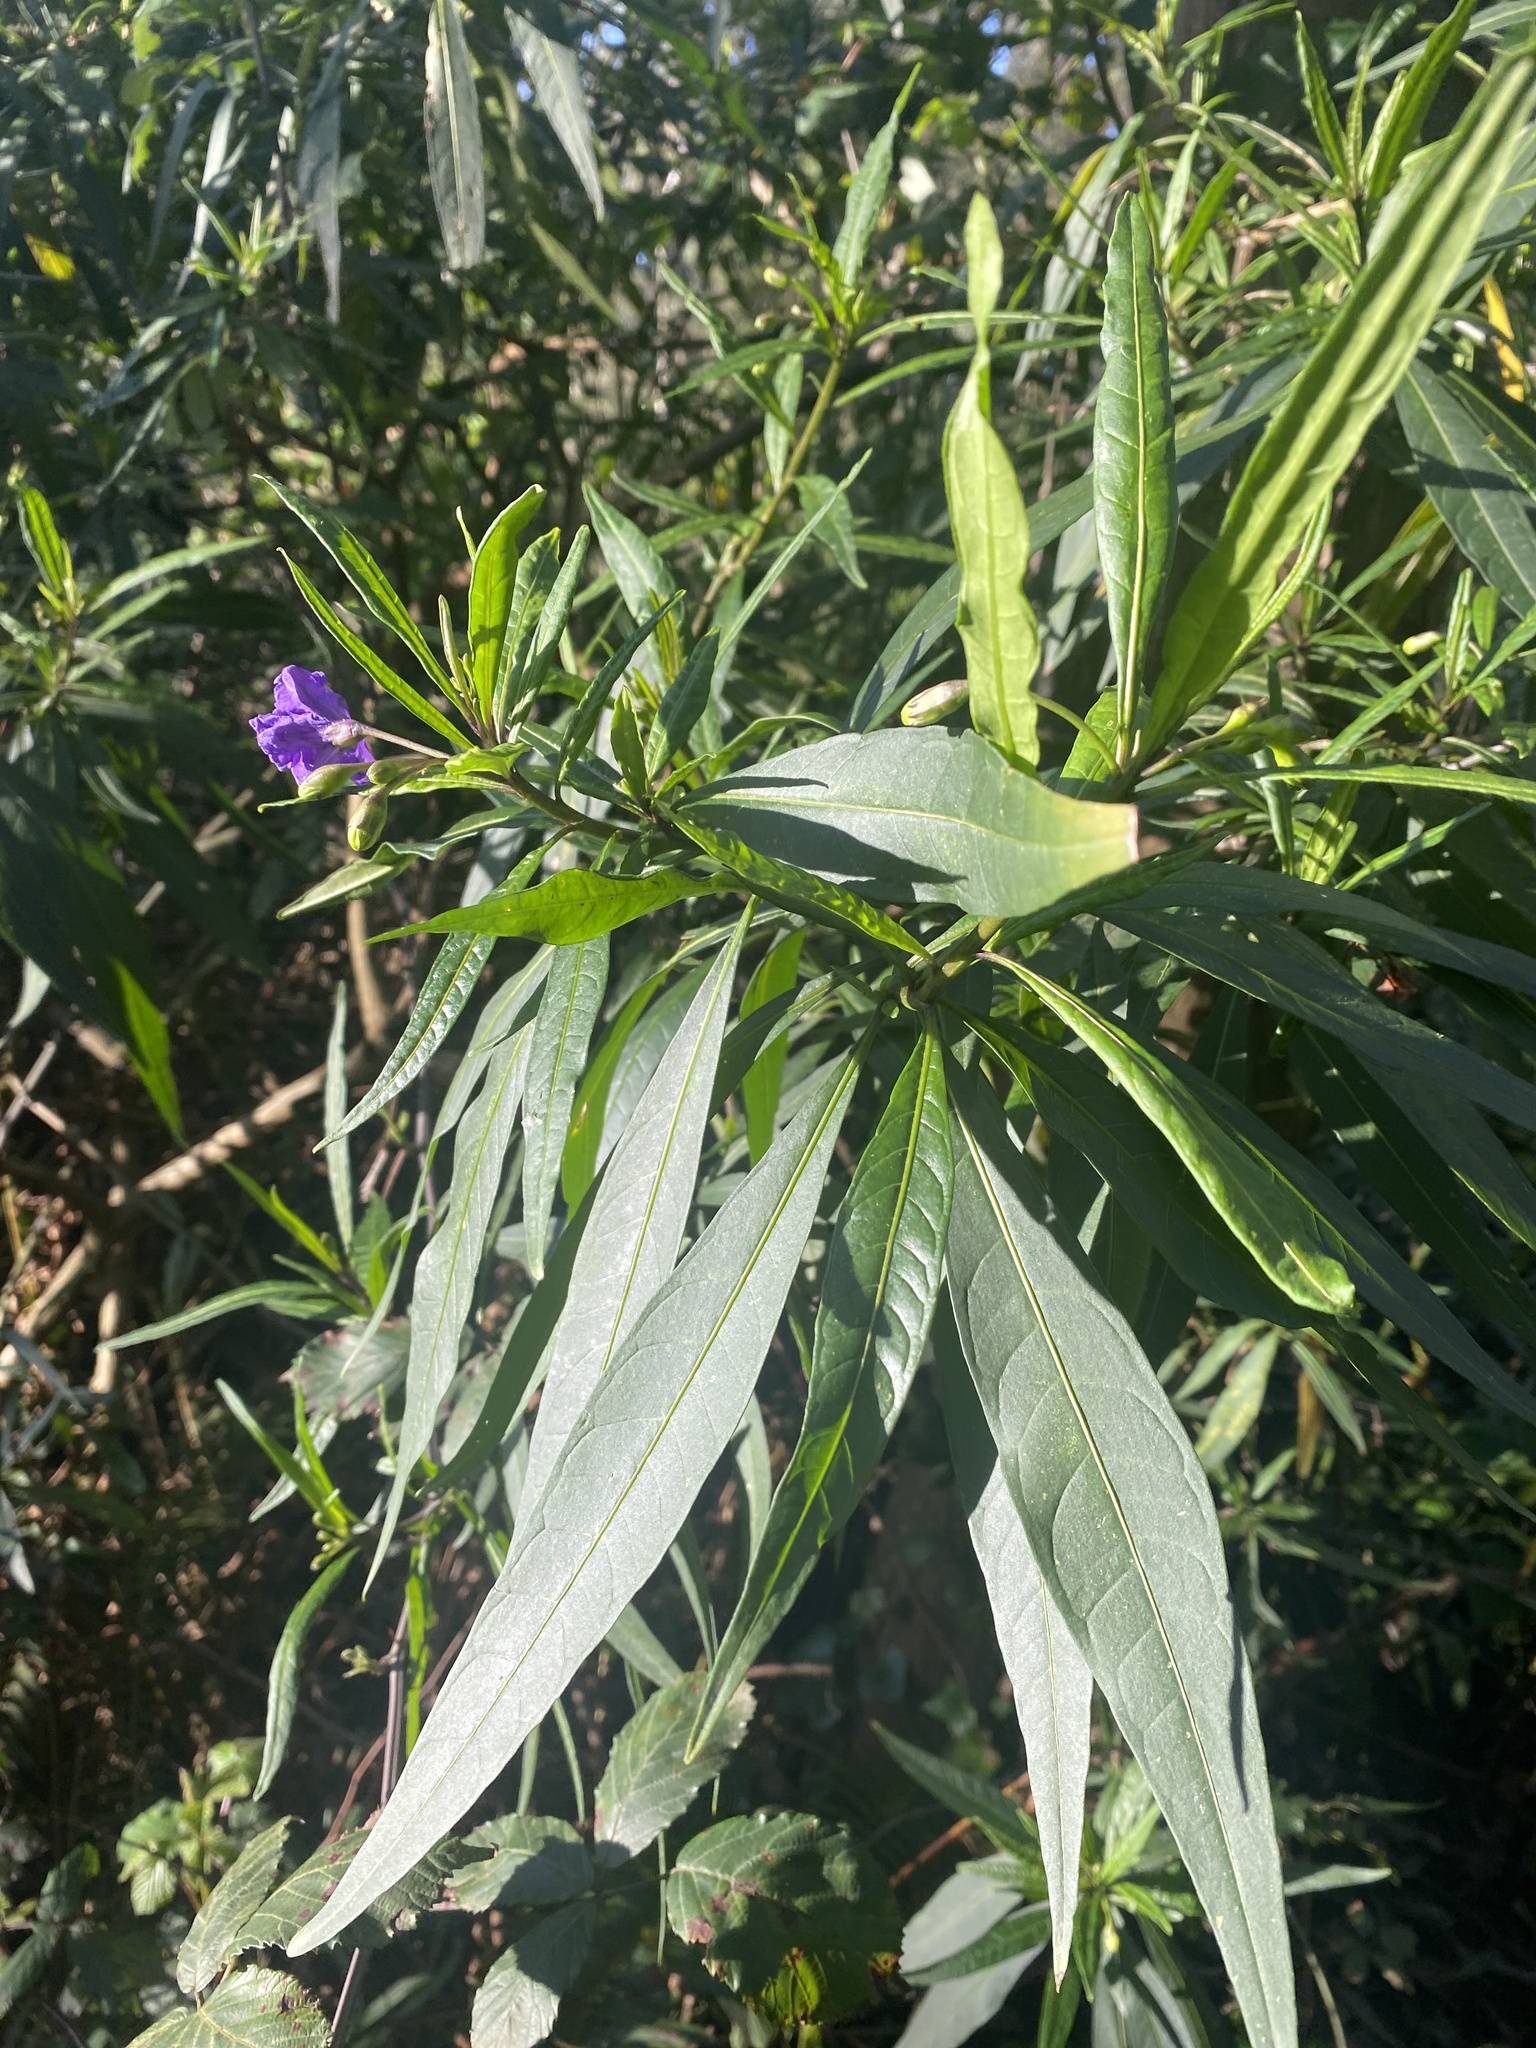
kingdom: Plantae
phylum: Tracheophyta
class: Magnoliopsida
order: Solanales
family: Solanaceae
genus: Solanum
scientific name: Solanum laciniatum
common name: Kangaroo-apple
